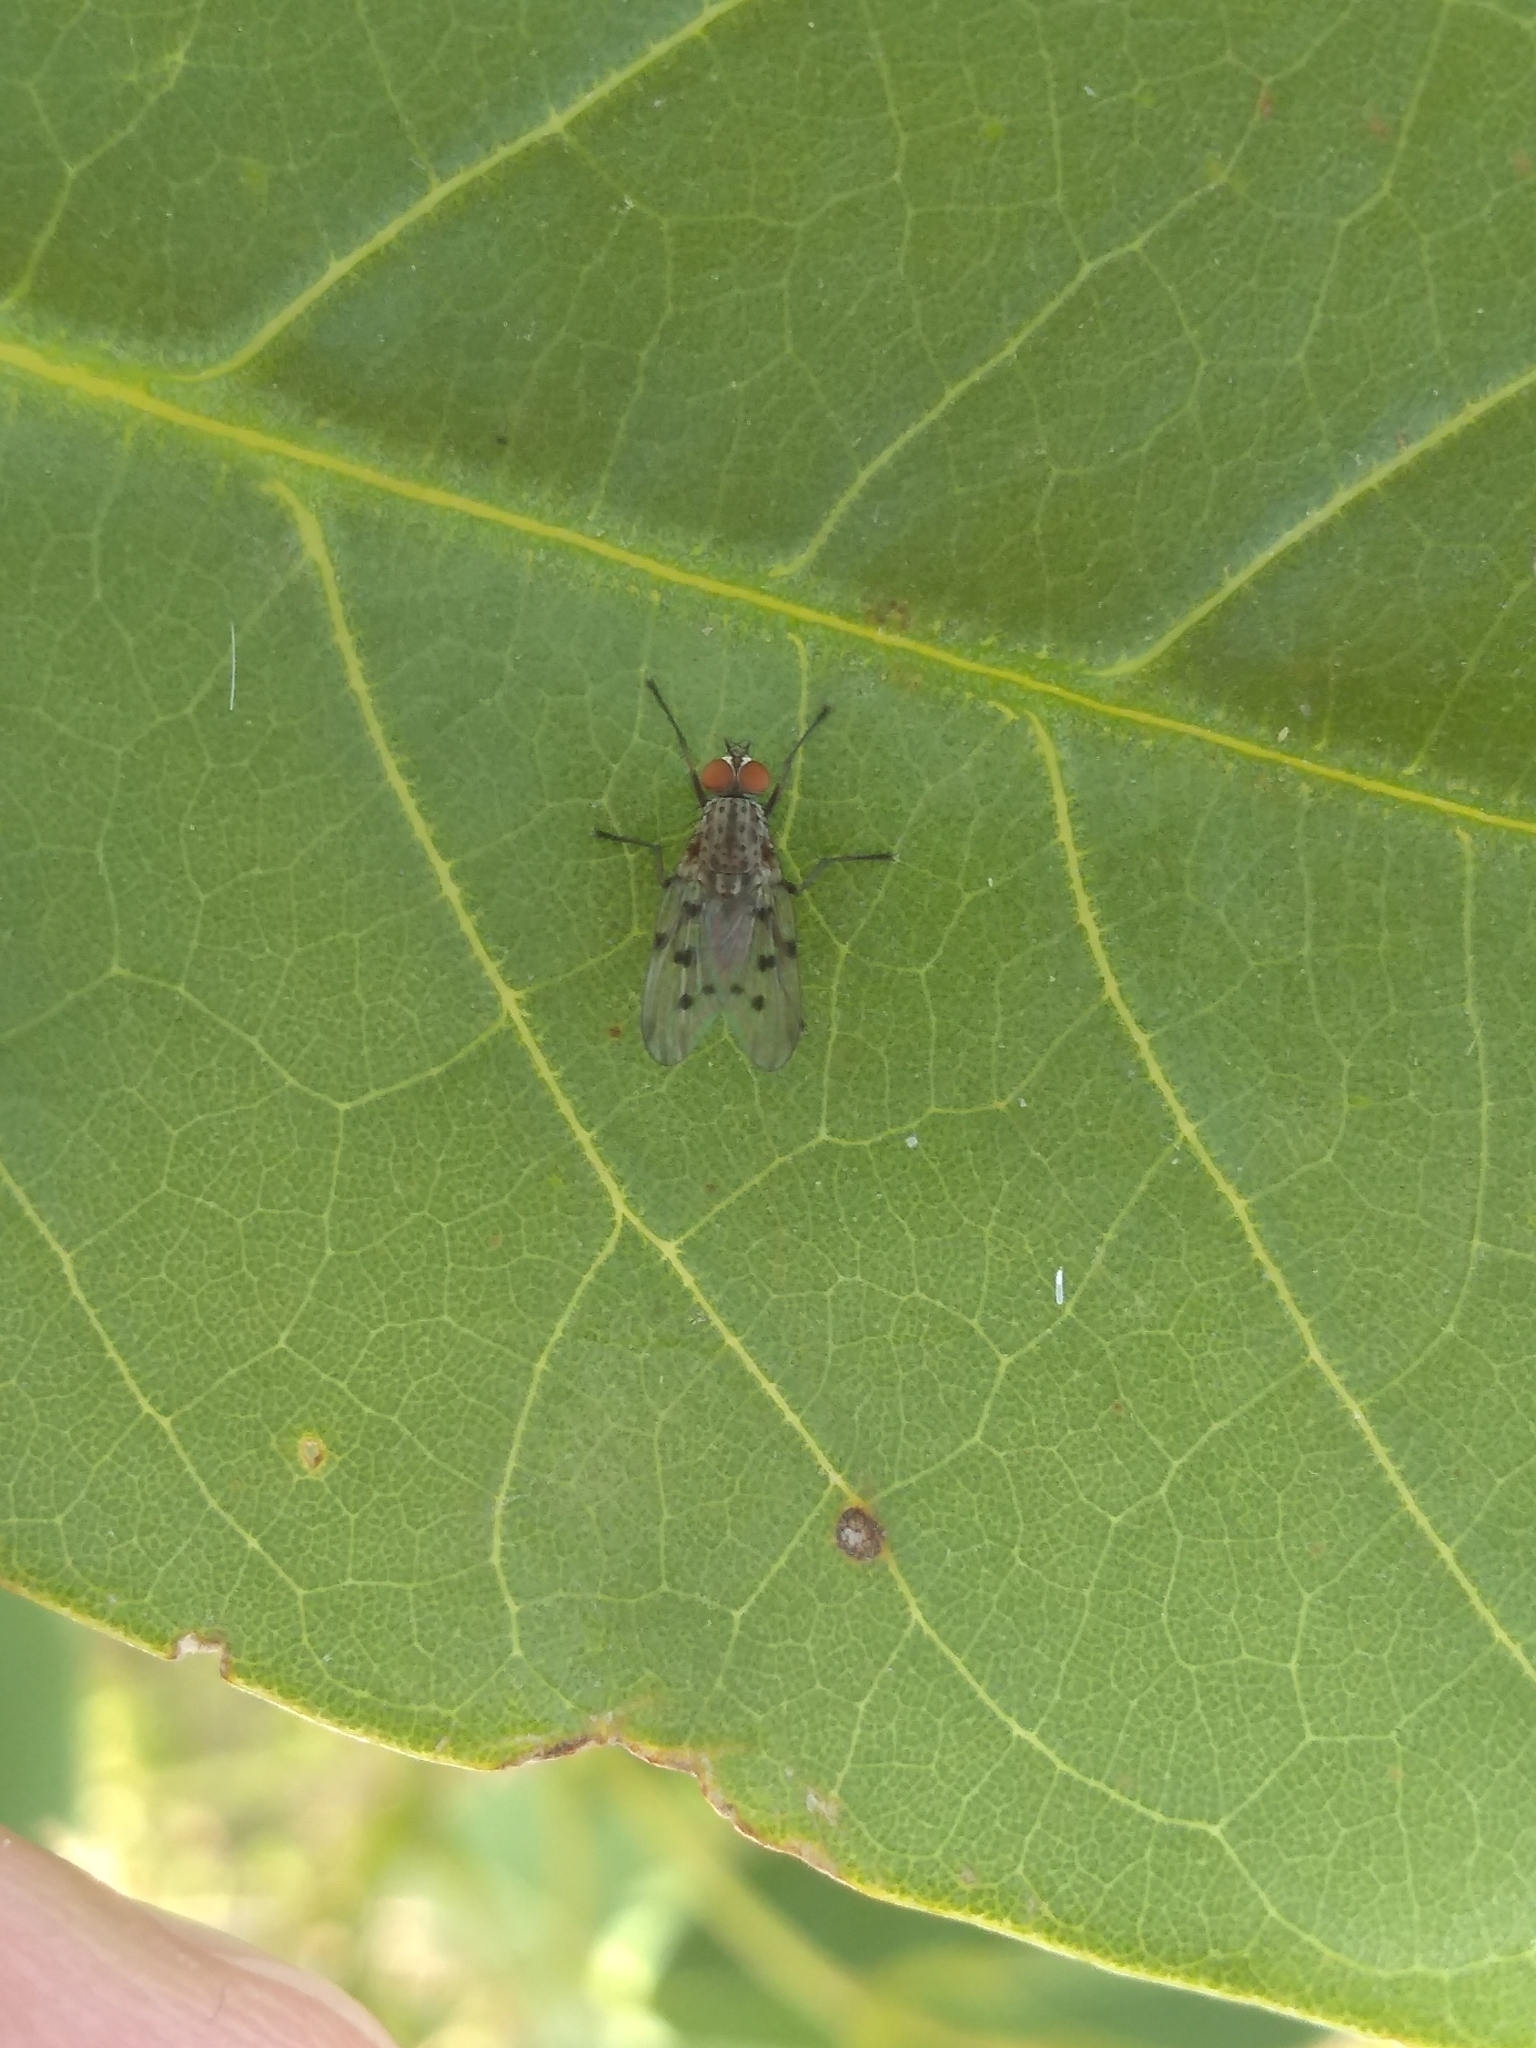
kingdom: Animalia
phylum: Arthropoda
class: Insecta
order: Diptera
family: Anthomyiidae
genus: Anthomyia
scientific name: Anthomyia punctipennis
